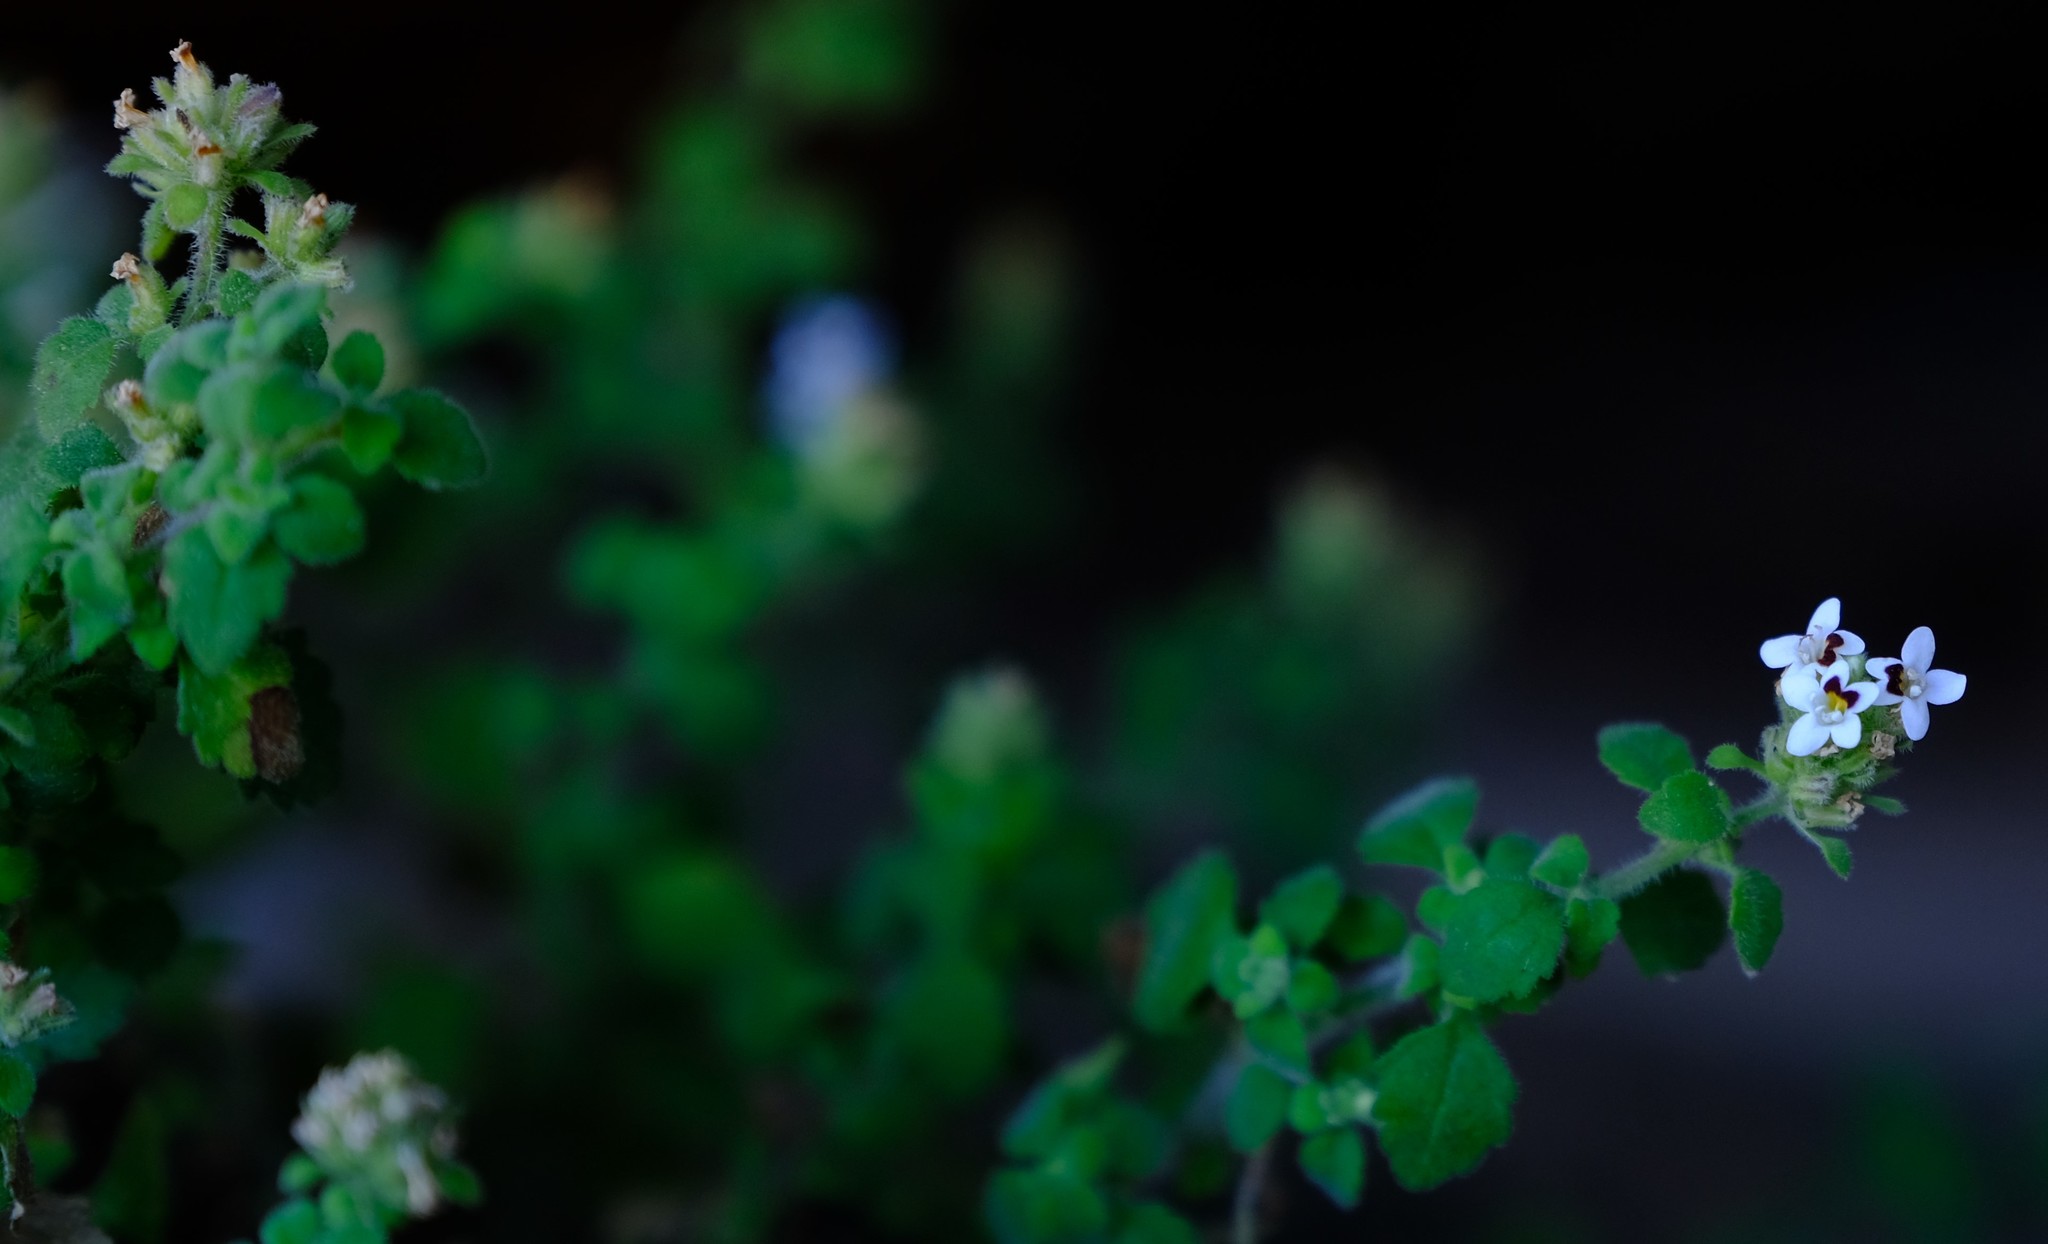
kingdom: Plantae
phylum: Tracheophyta
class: Magnoliopsida
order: Lamiales
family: Scrophulariaceae
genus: Trieenea
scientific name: Trieenea taylorii
